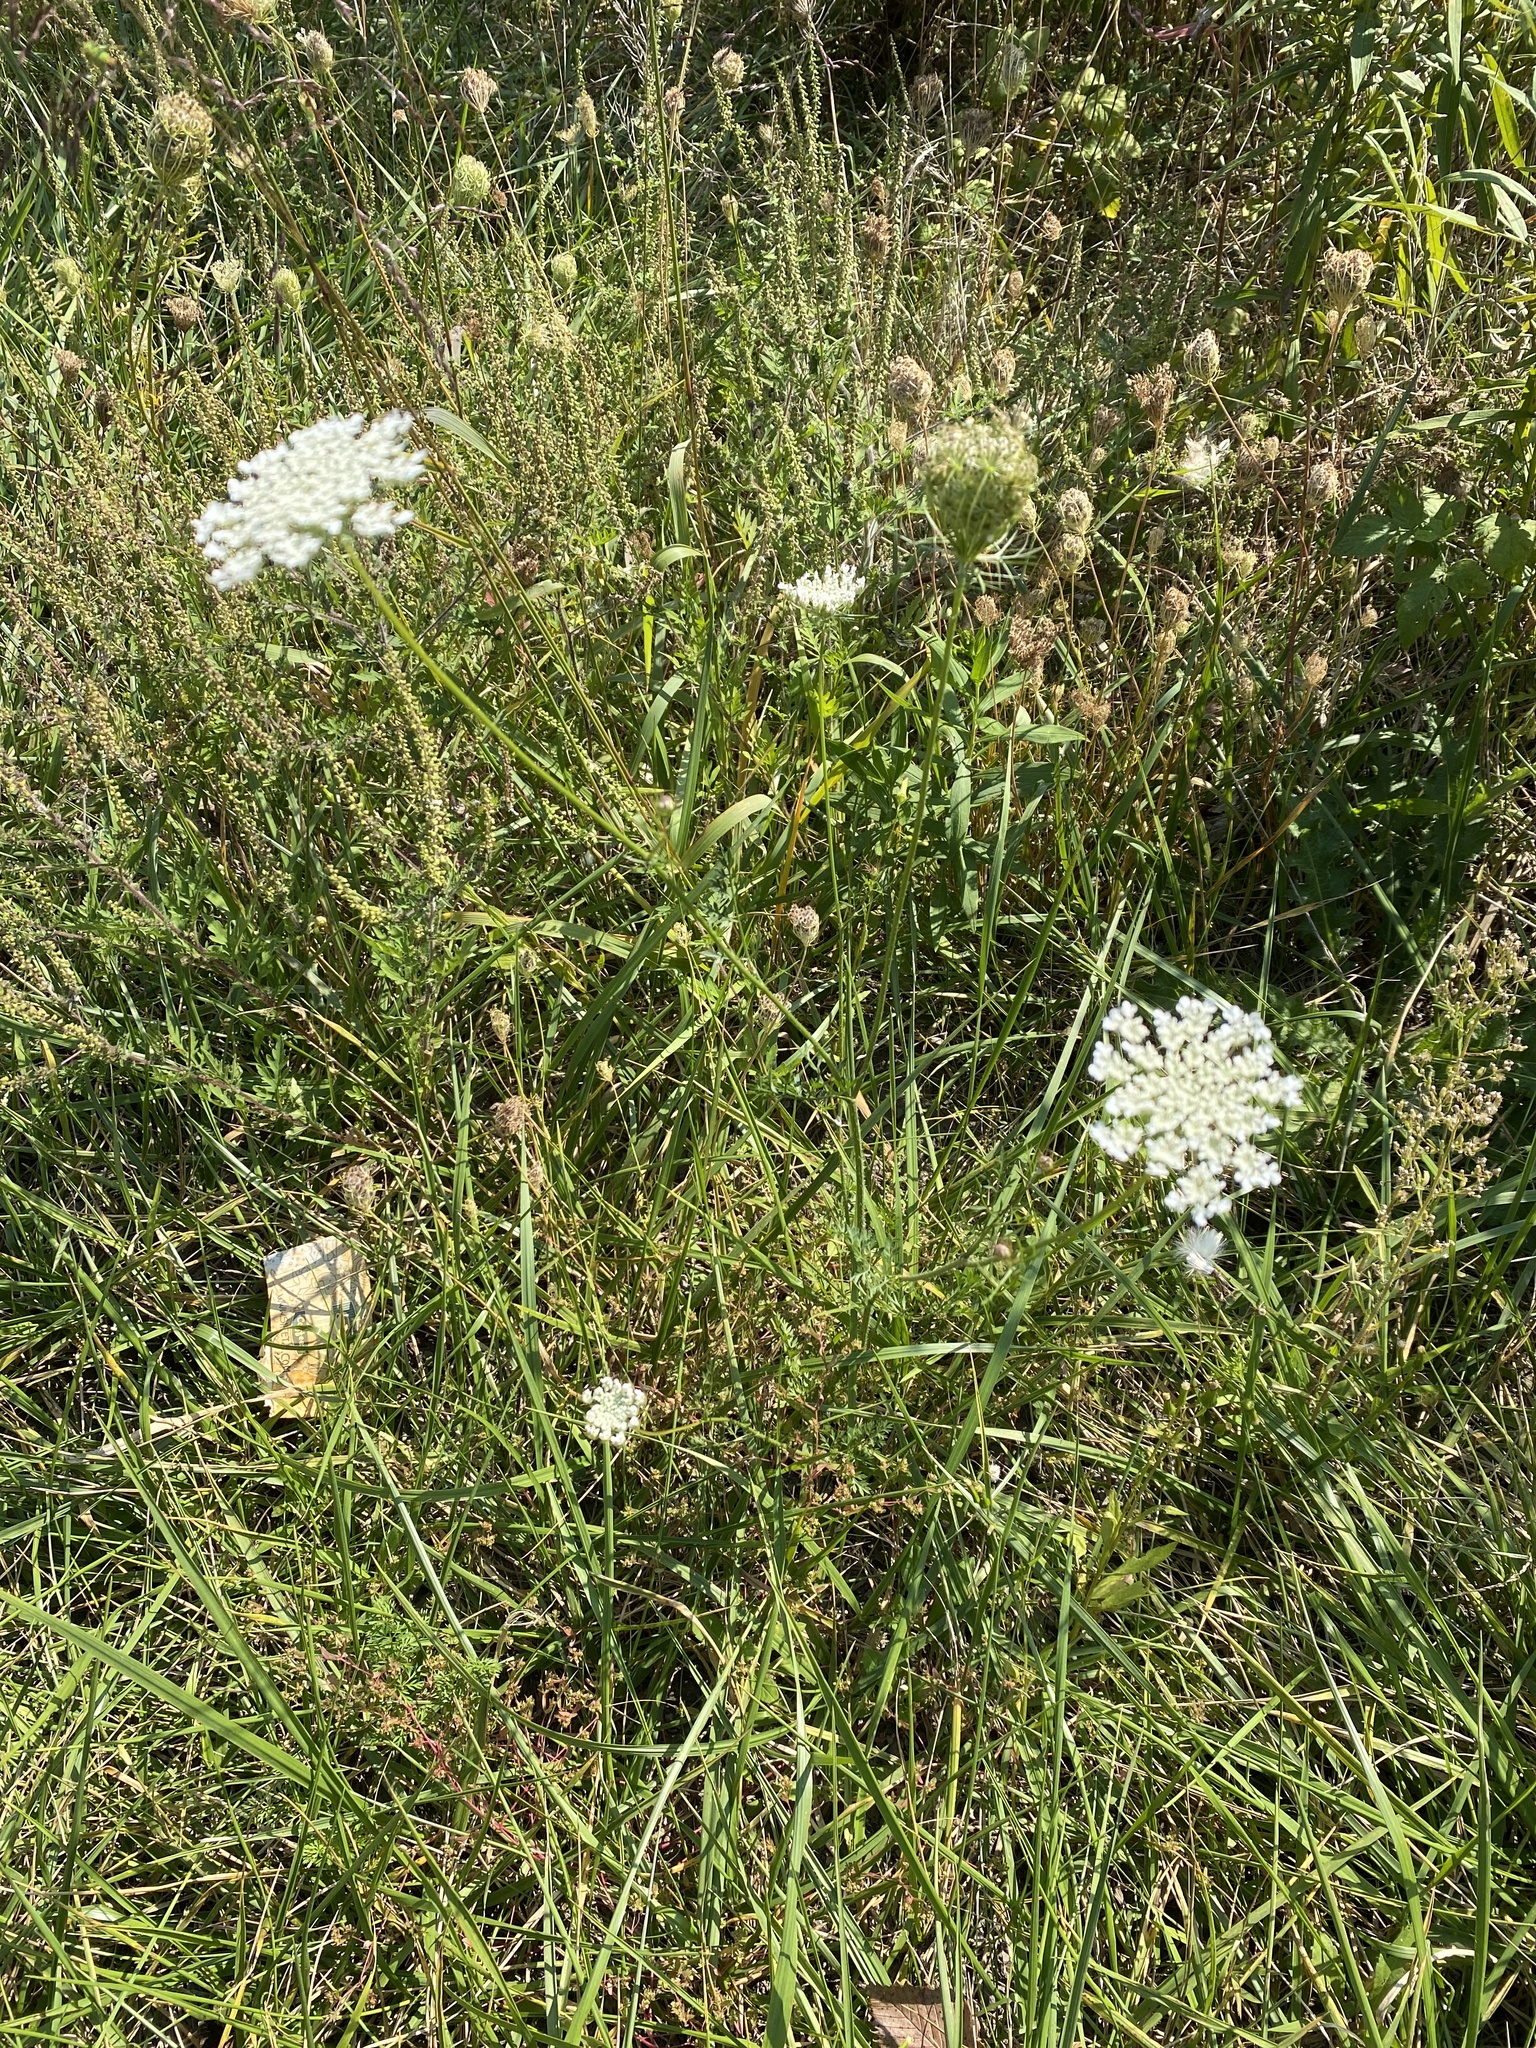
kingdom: Plantae
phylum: Tracheophyta
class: Magnoliopsida
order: Apiales
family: Apiaceae
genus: Daucus
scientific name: Daucus carota
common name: Wild carrot
